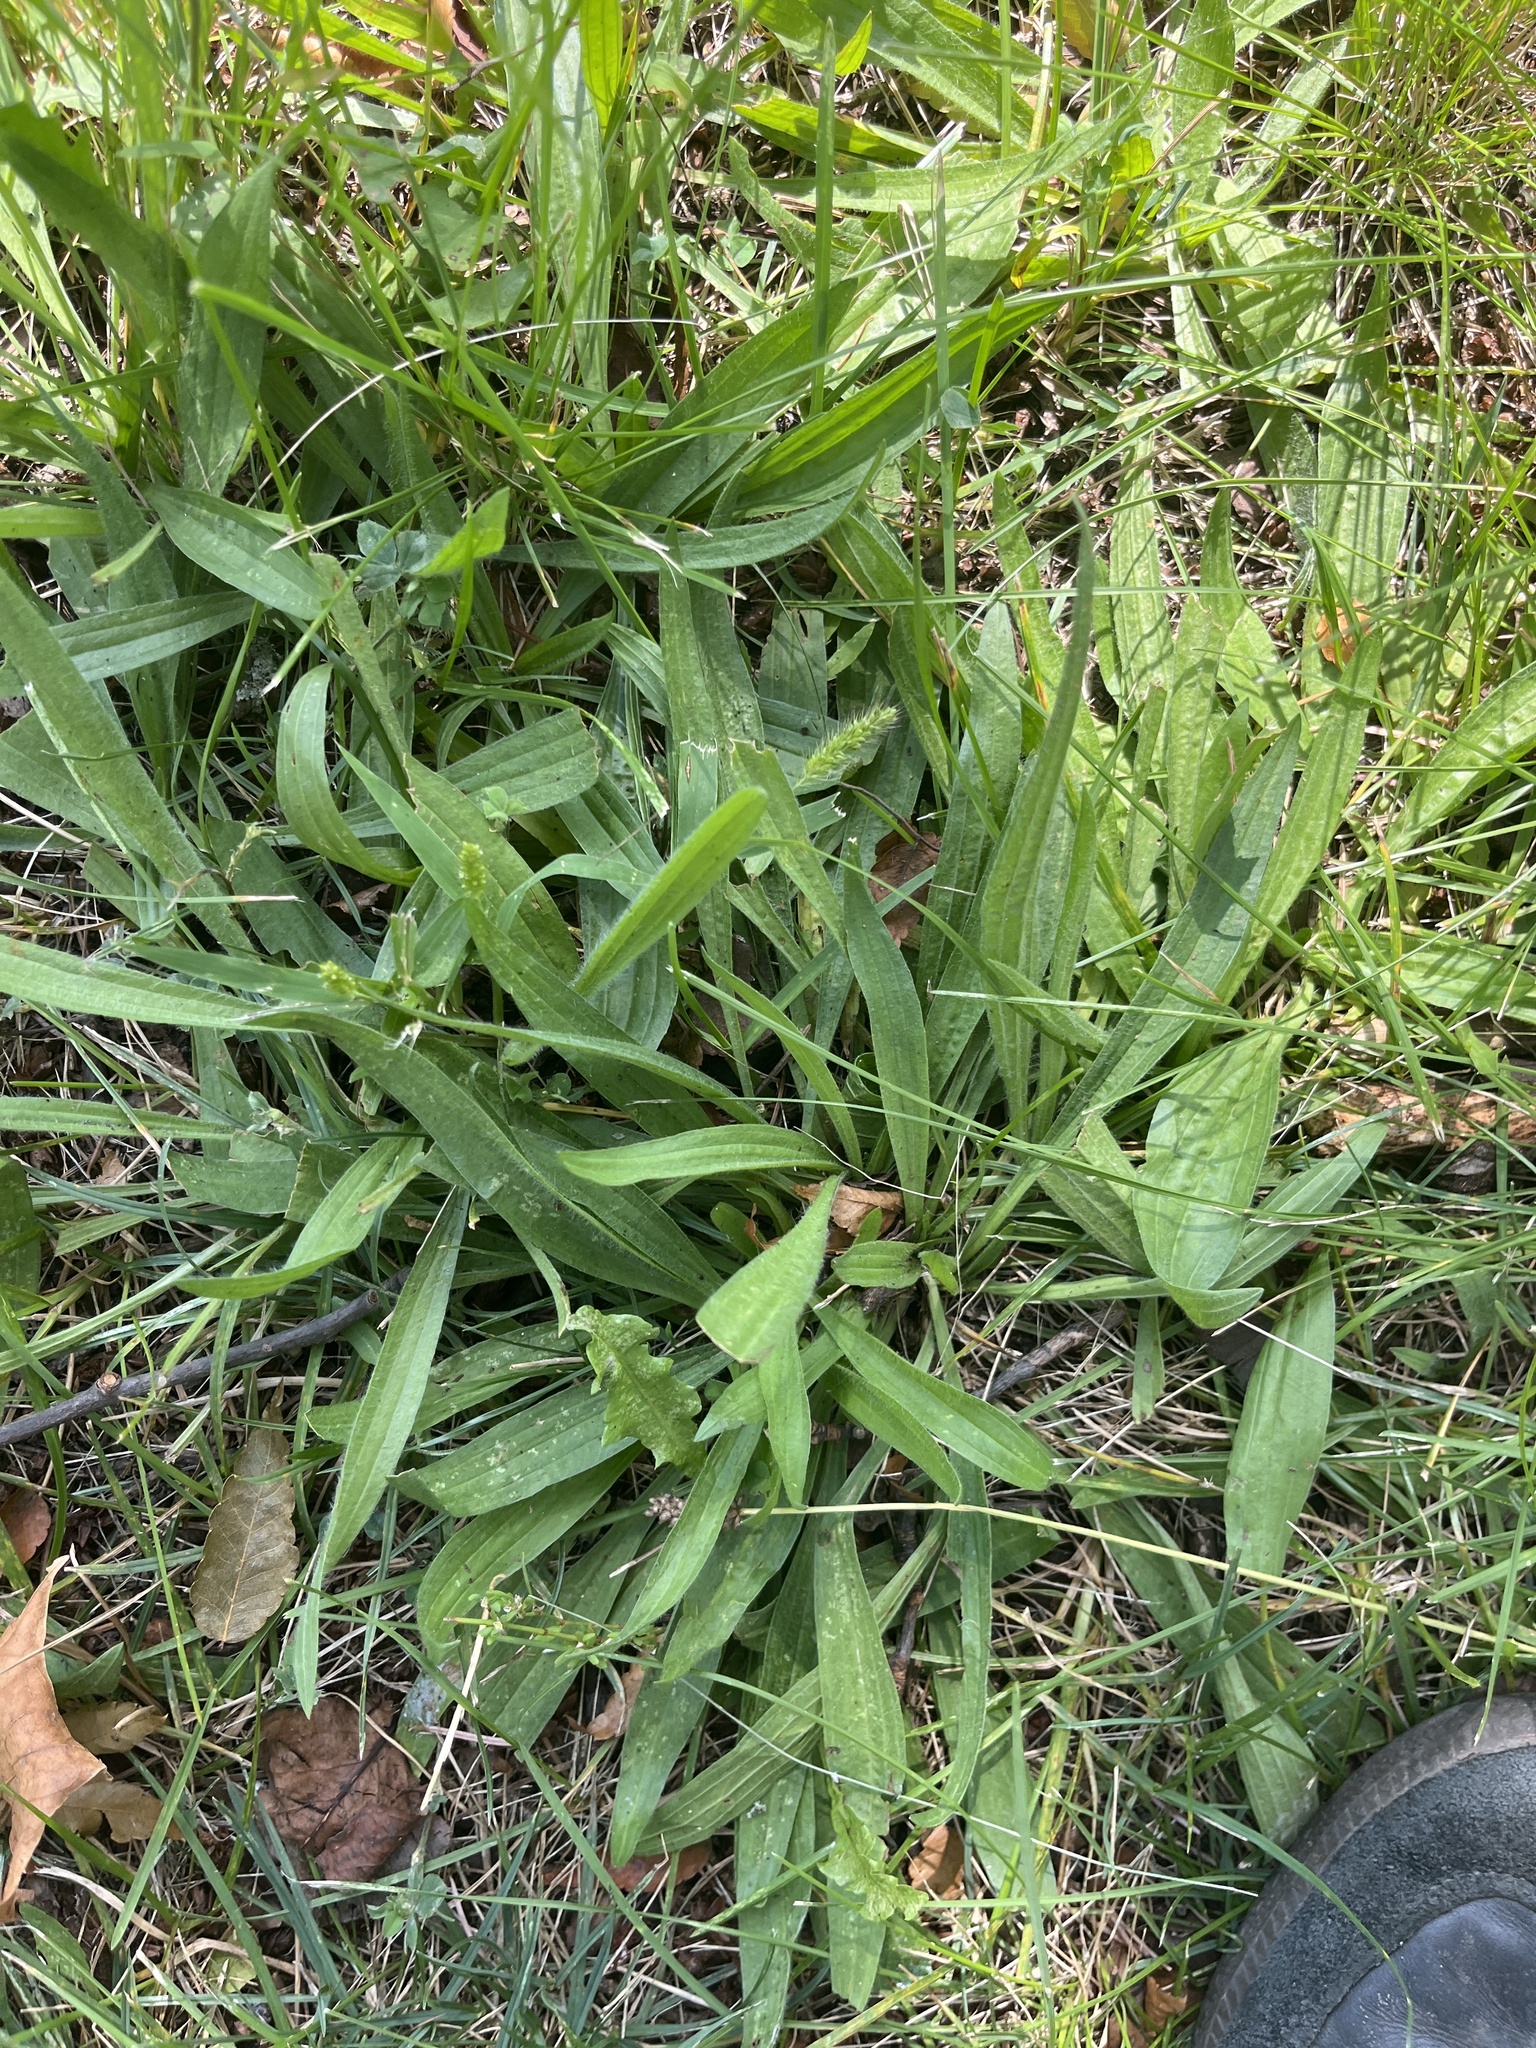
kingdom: Plantae
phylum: Tracheophyta
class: Magnoliopsida
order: Lamiales
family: Plantaginaceae
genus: Plantago
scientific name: Plantago lanceolata
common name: Ribwort plantain
